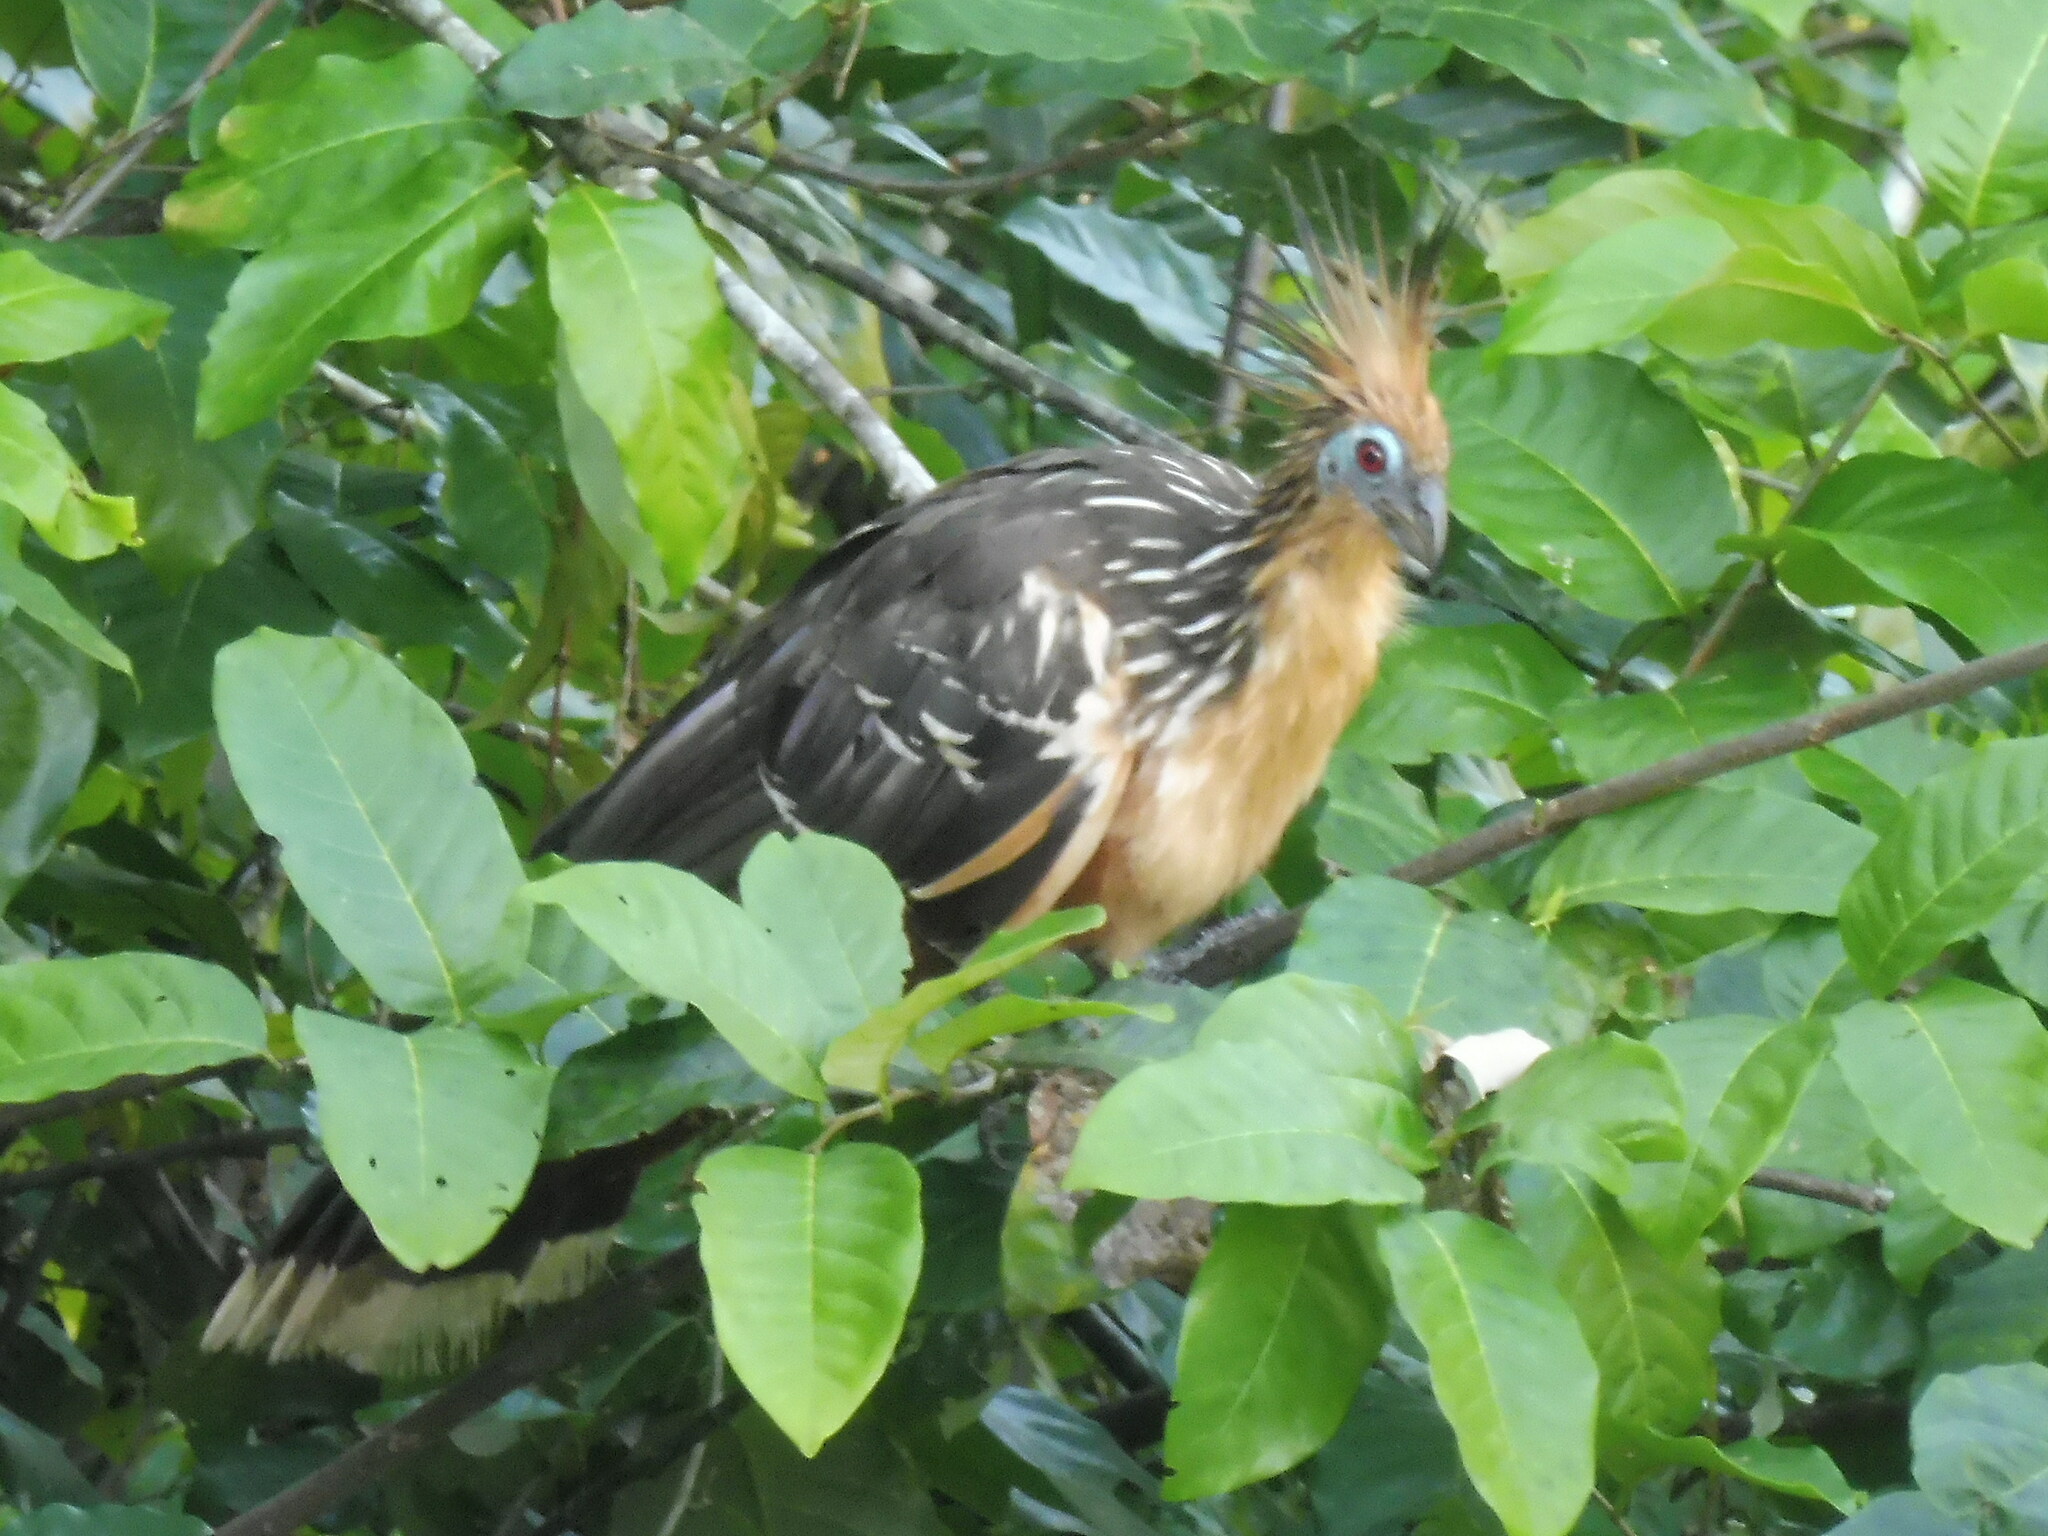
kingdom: Animalia
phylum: Chordata
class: Aves
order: Opisthocomiformes
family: Opisthocomidae
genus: Opisthocomus
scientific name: Opisthocomus hoazin
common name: Hoatzin
